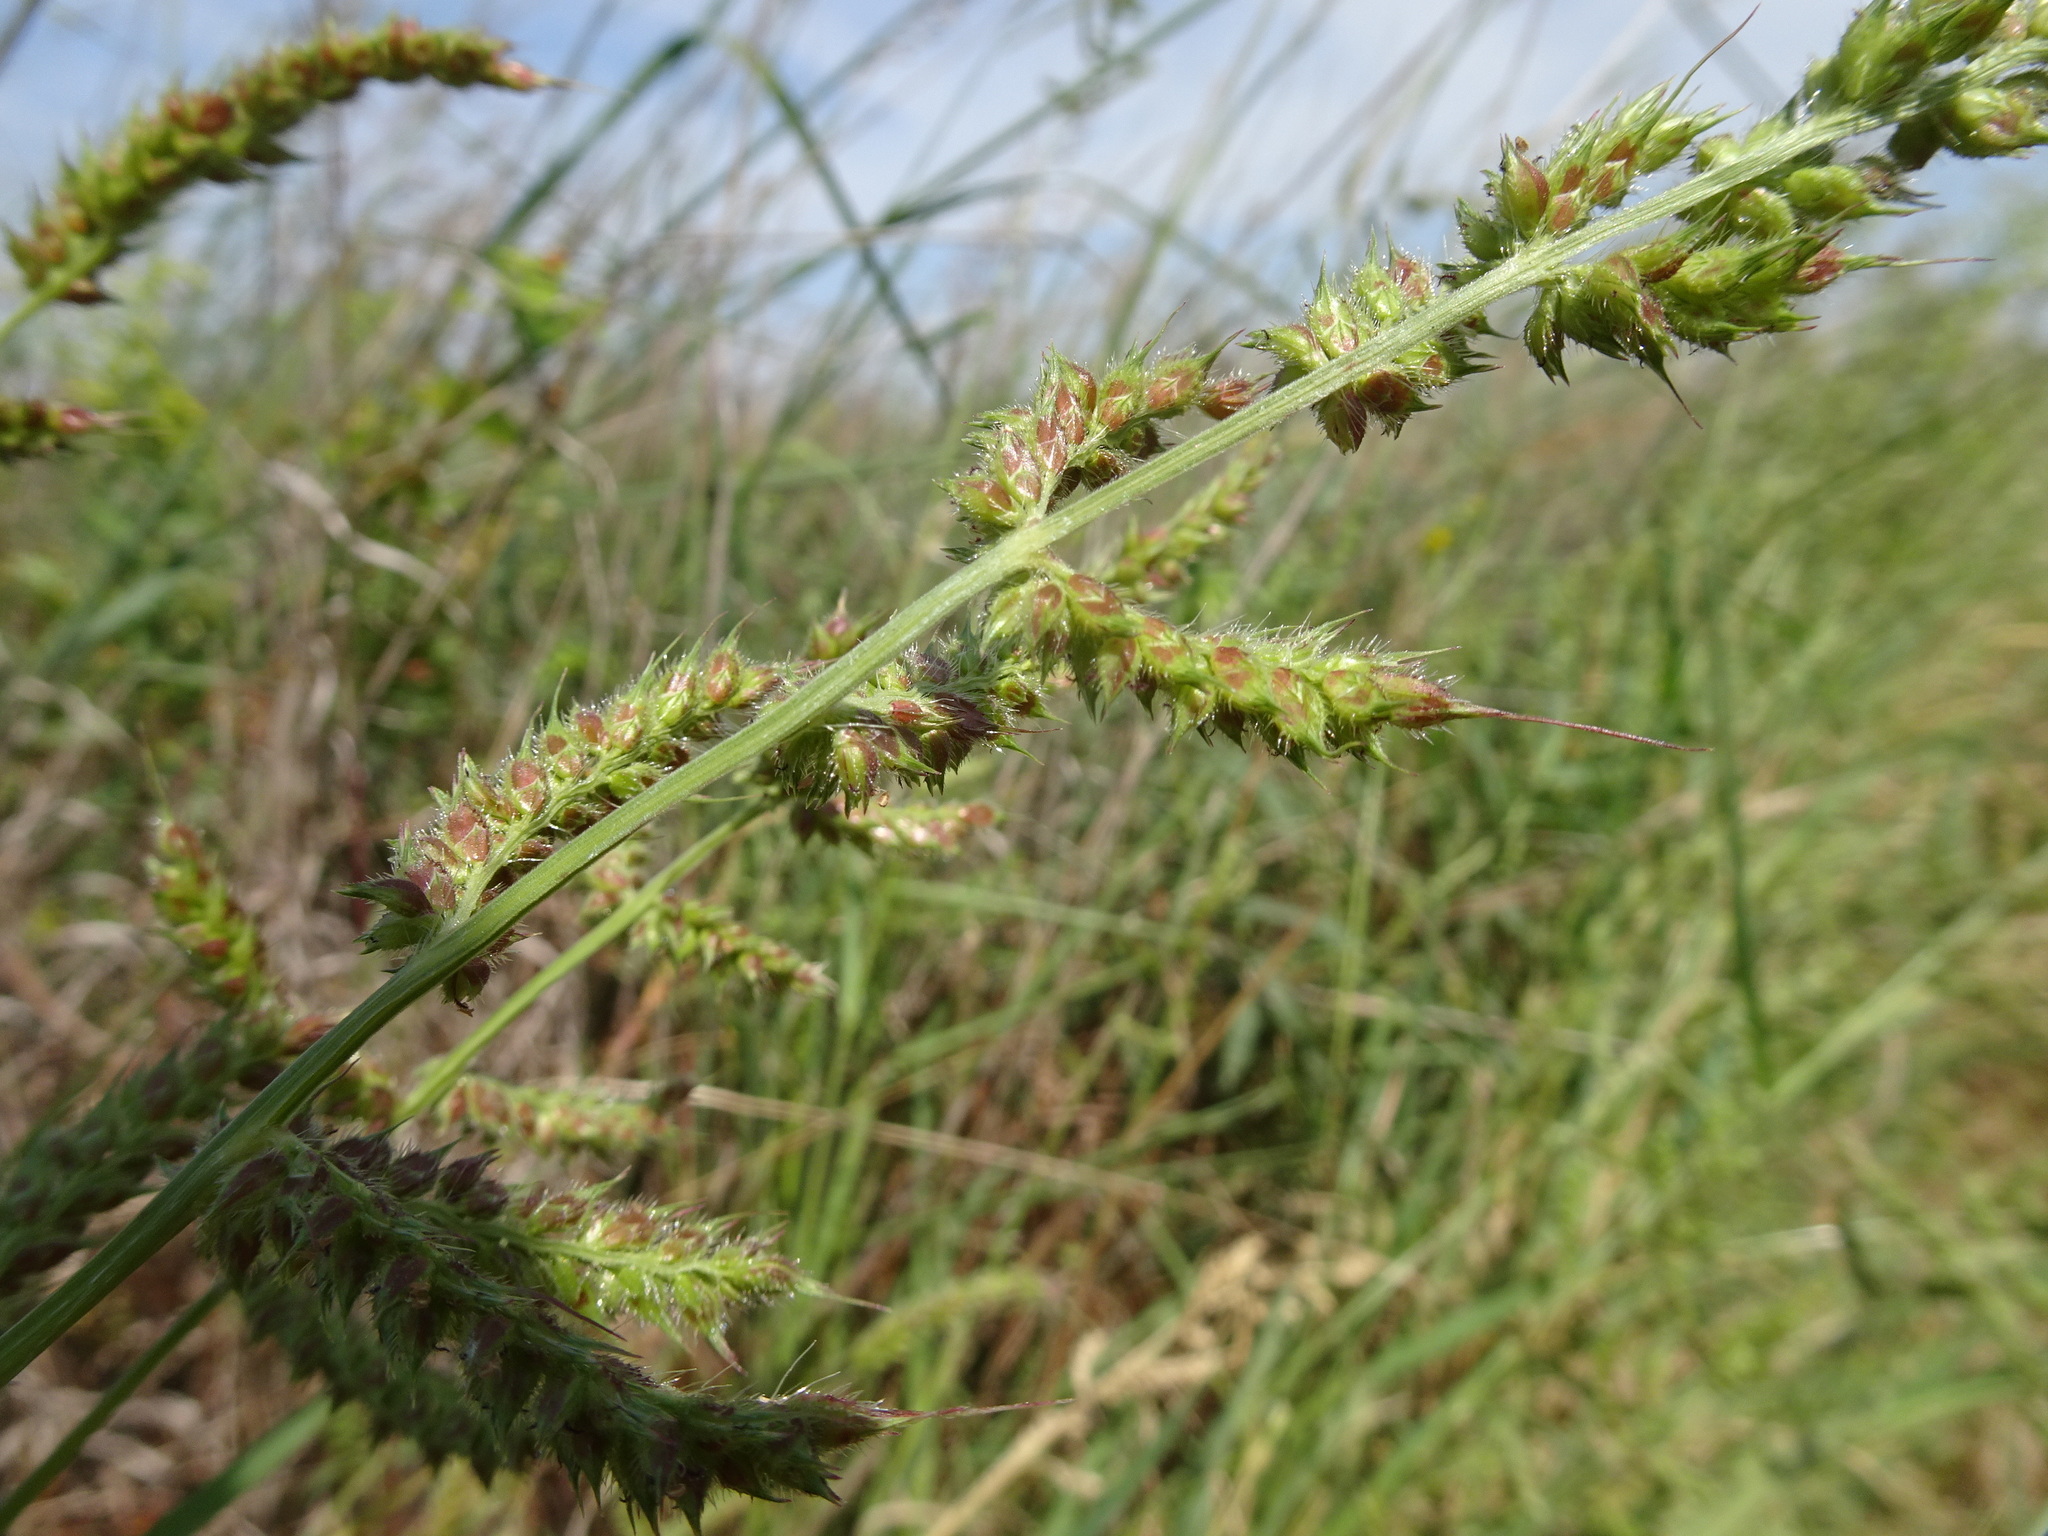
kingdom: Plantae
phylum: Tracheophyta
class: Liliopsida
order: Poales
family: Poaceae
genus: Echinochloa
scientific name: Echinochloa
